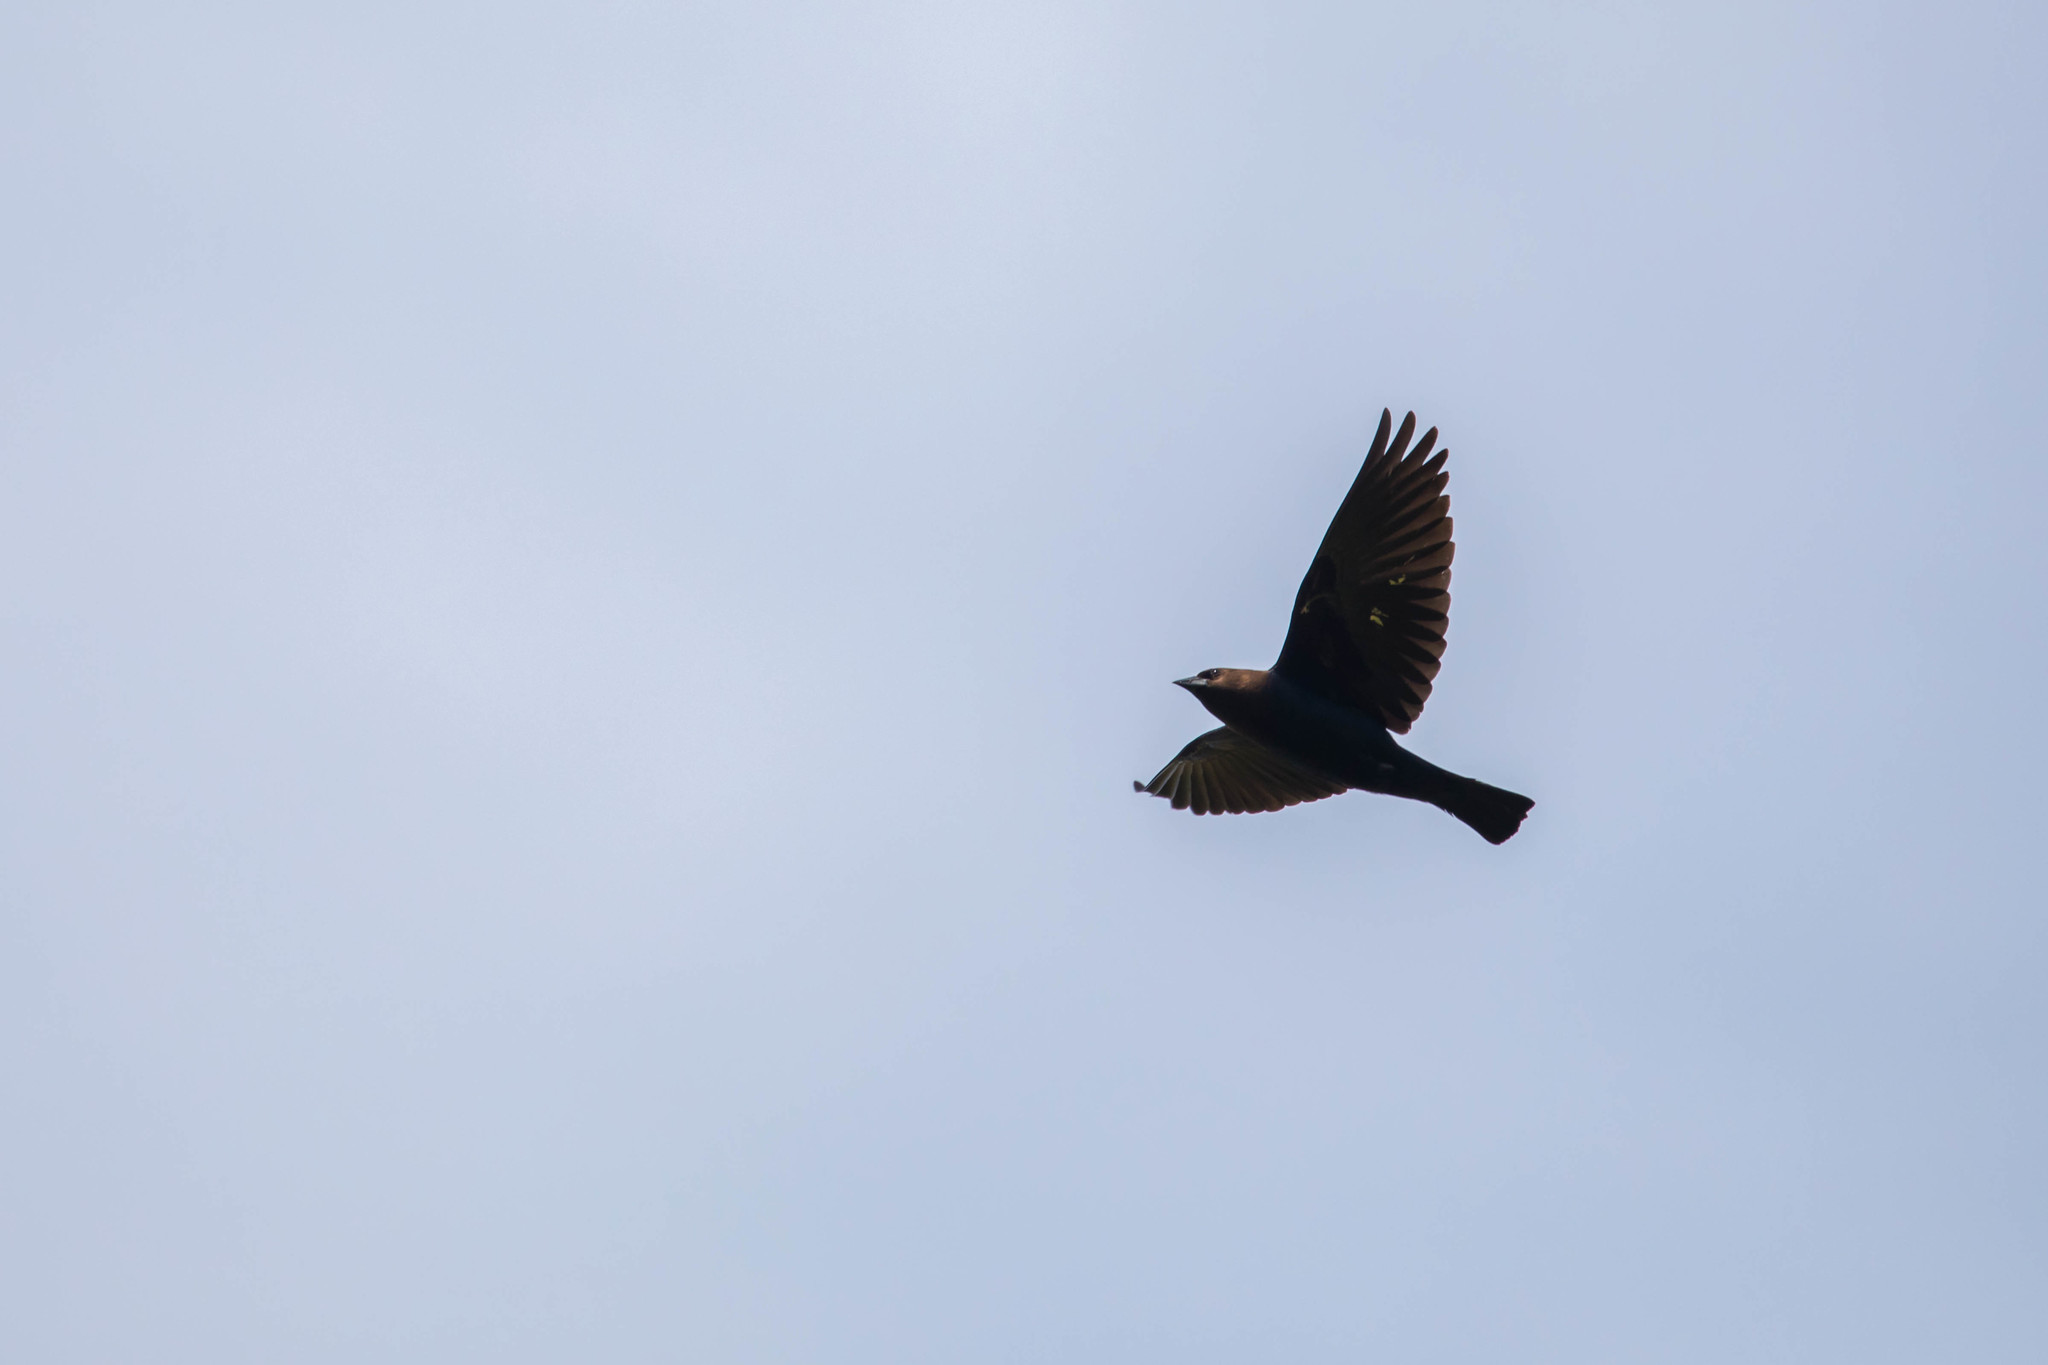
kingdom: Animalia
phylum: Chordata
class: Aves
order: Passeriformes
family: Icteridae
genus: Molothrus
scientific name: Molothrus ater
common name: Brown-headed cowbird
